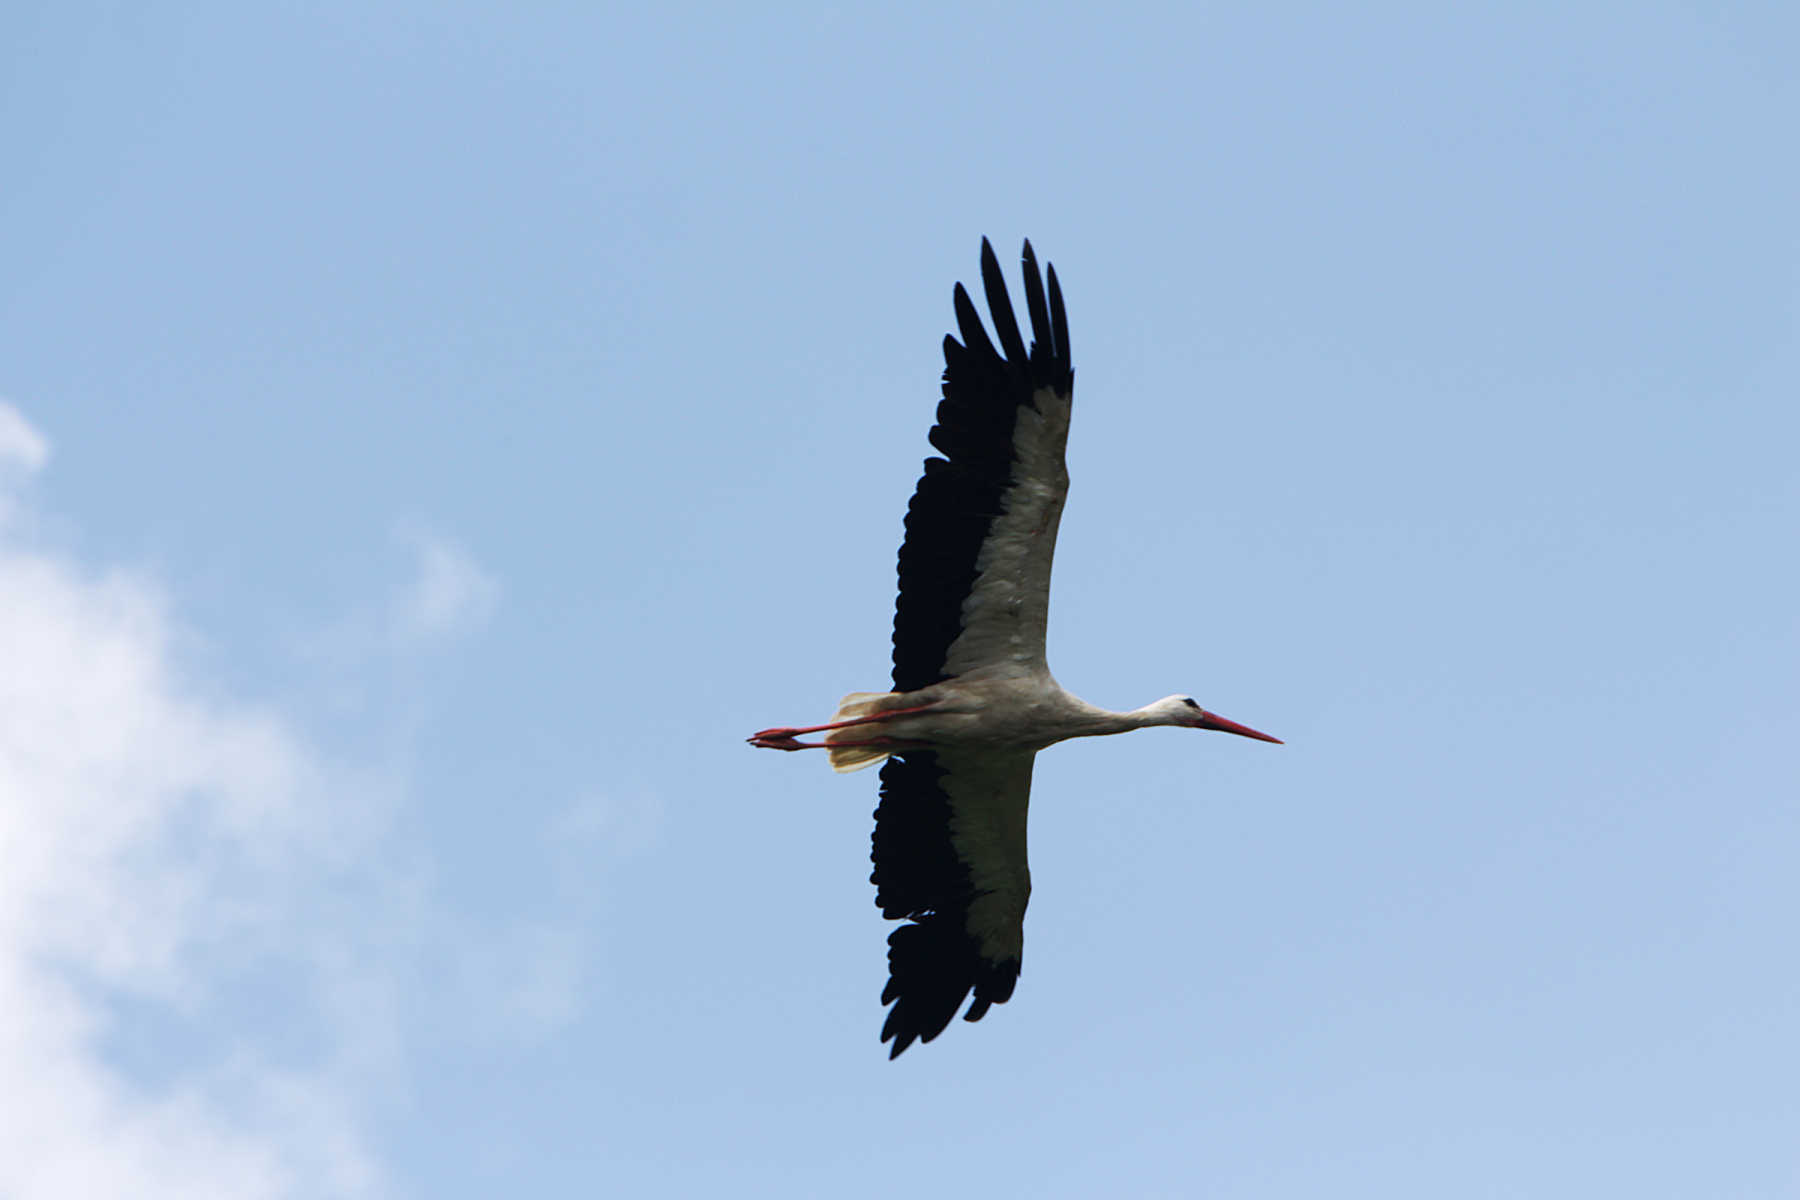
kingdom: Animalia
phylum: Chordata
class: Aves
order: Ciconiiformes
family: Ciconiidae
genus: Ciconia
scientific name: Ciconia ciconia
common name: White stork
